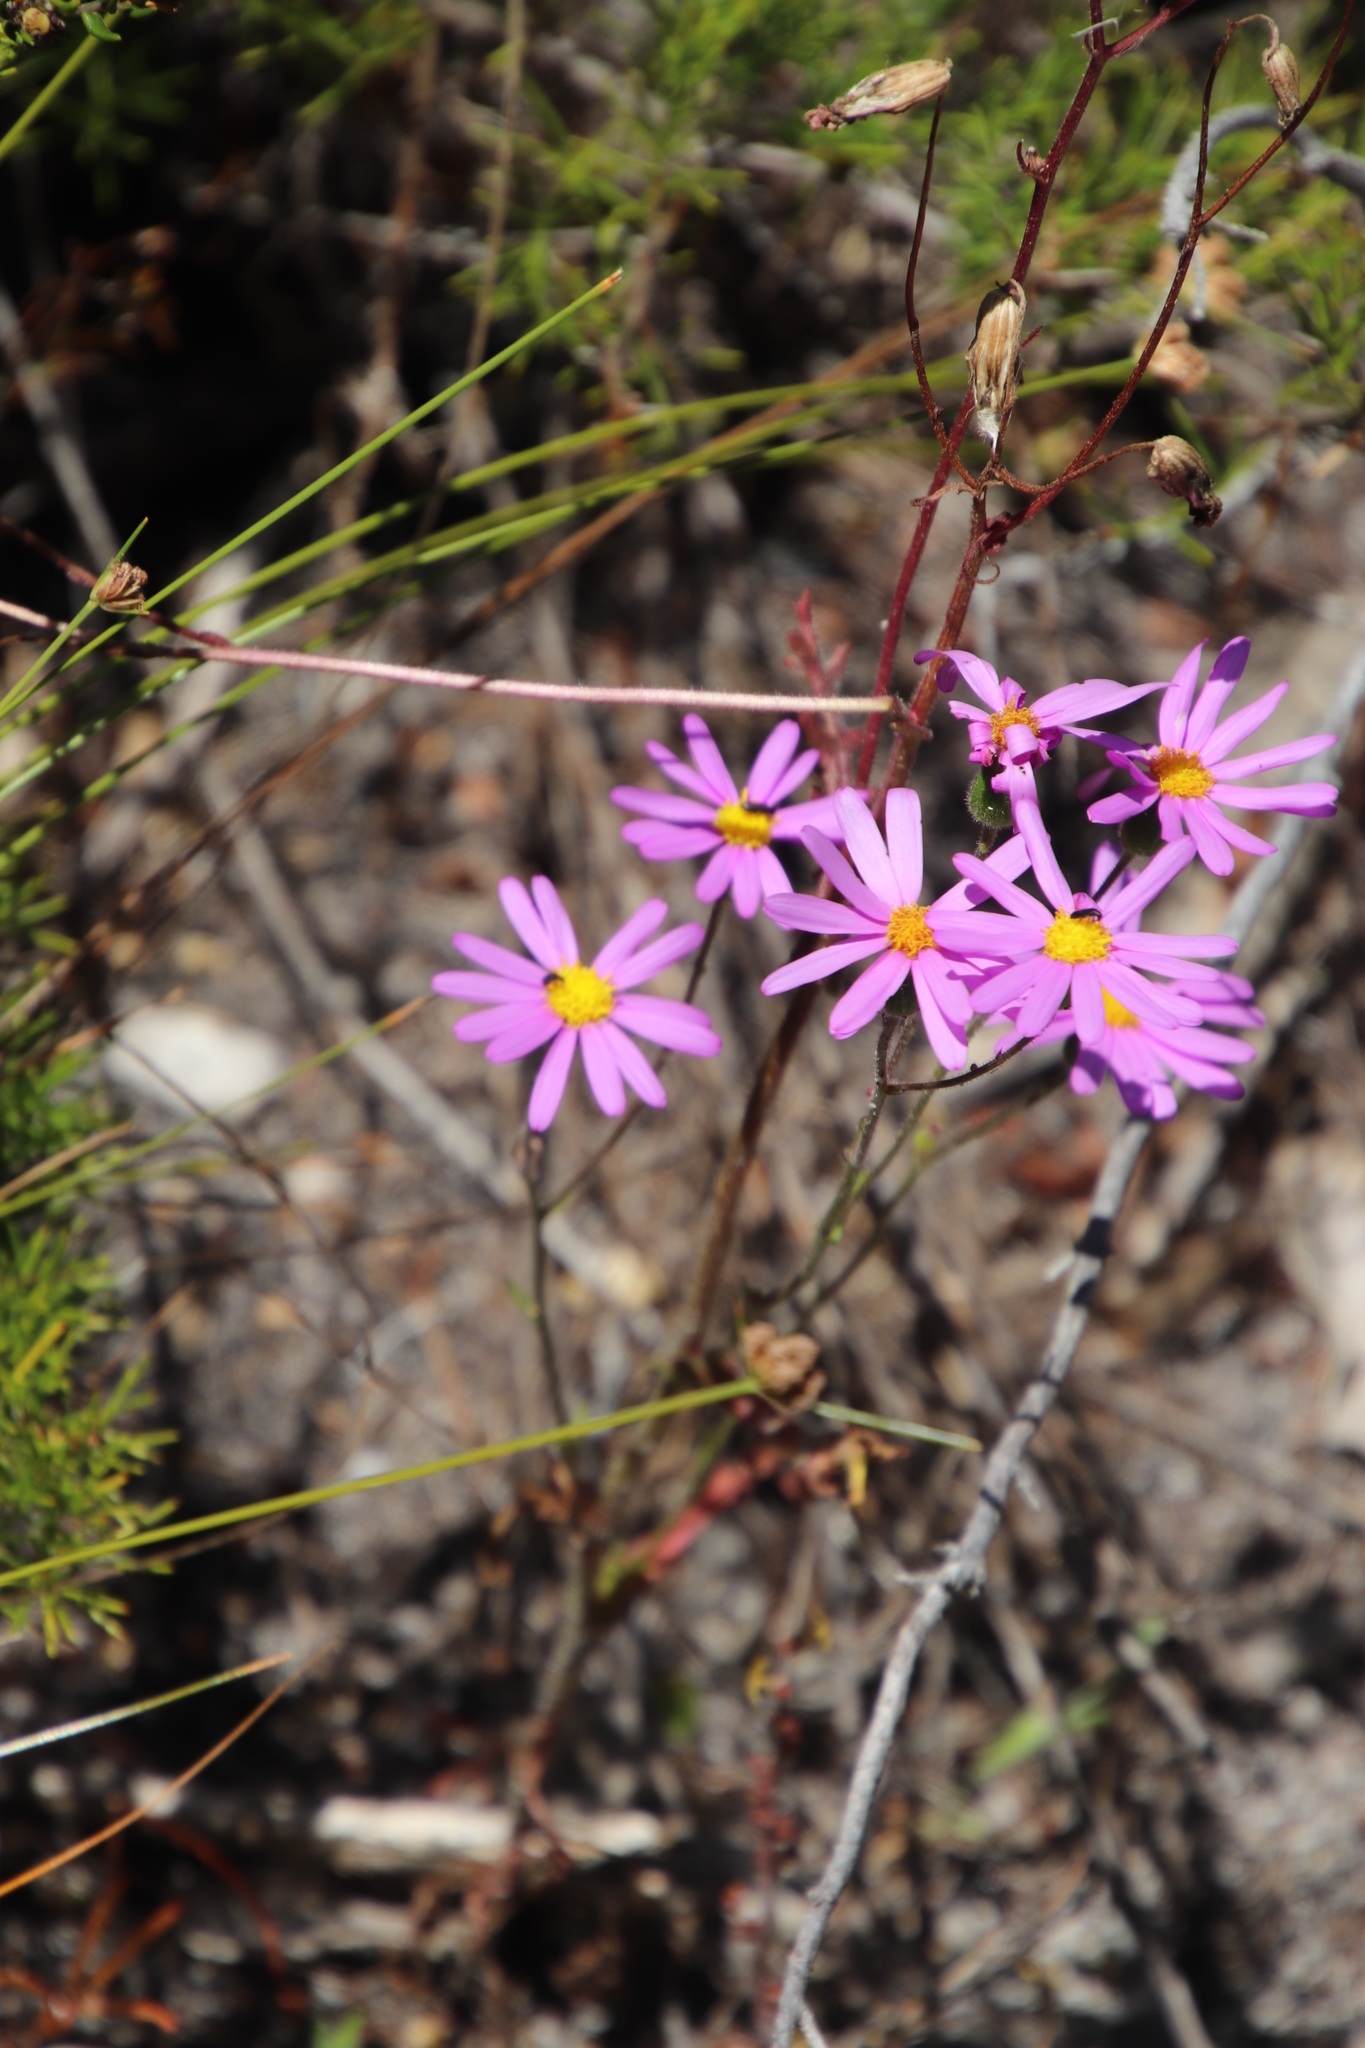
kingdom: Plantae
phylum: Tracheophyta
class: Magnoliopsida
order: Asterales
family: Asteraceae
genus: Senecio
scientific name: Senecio arenarius
